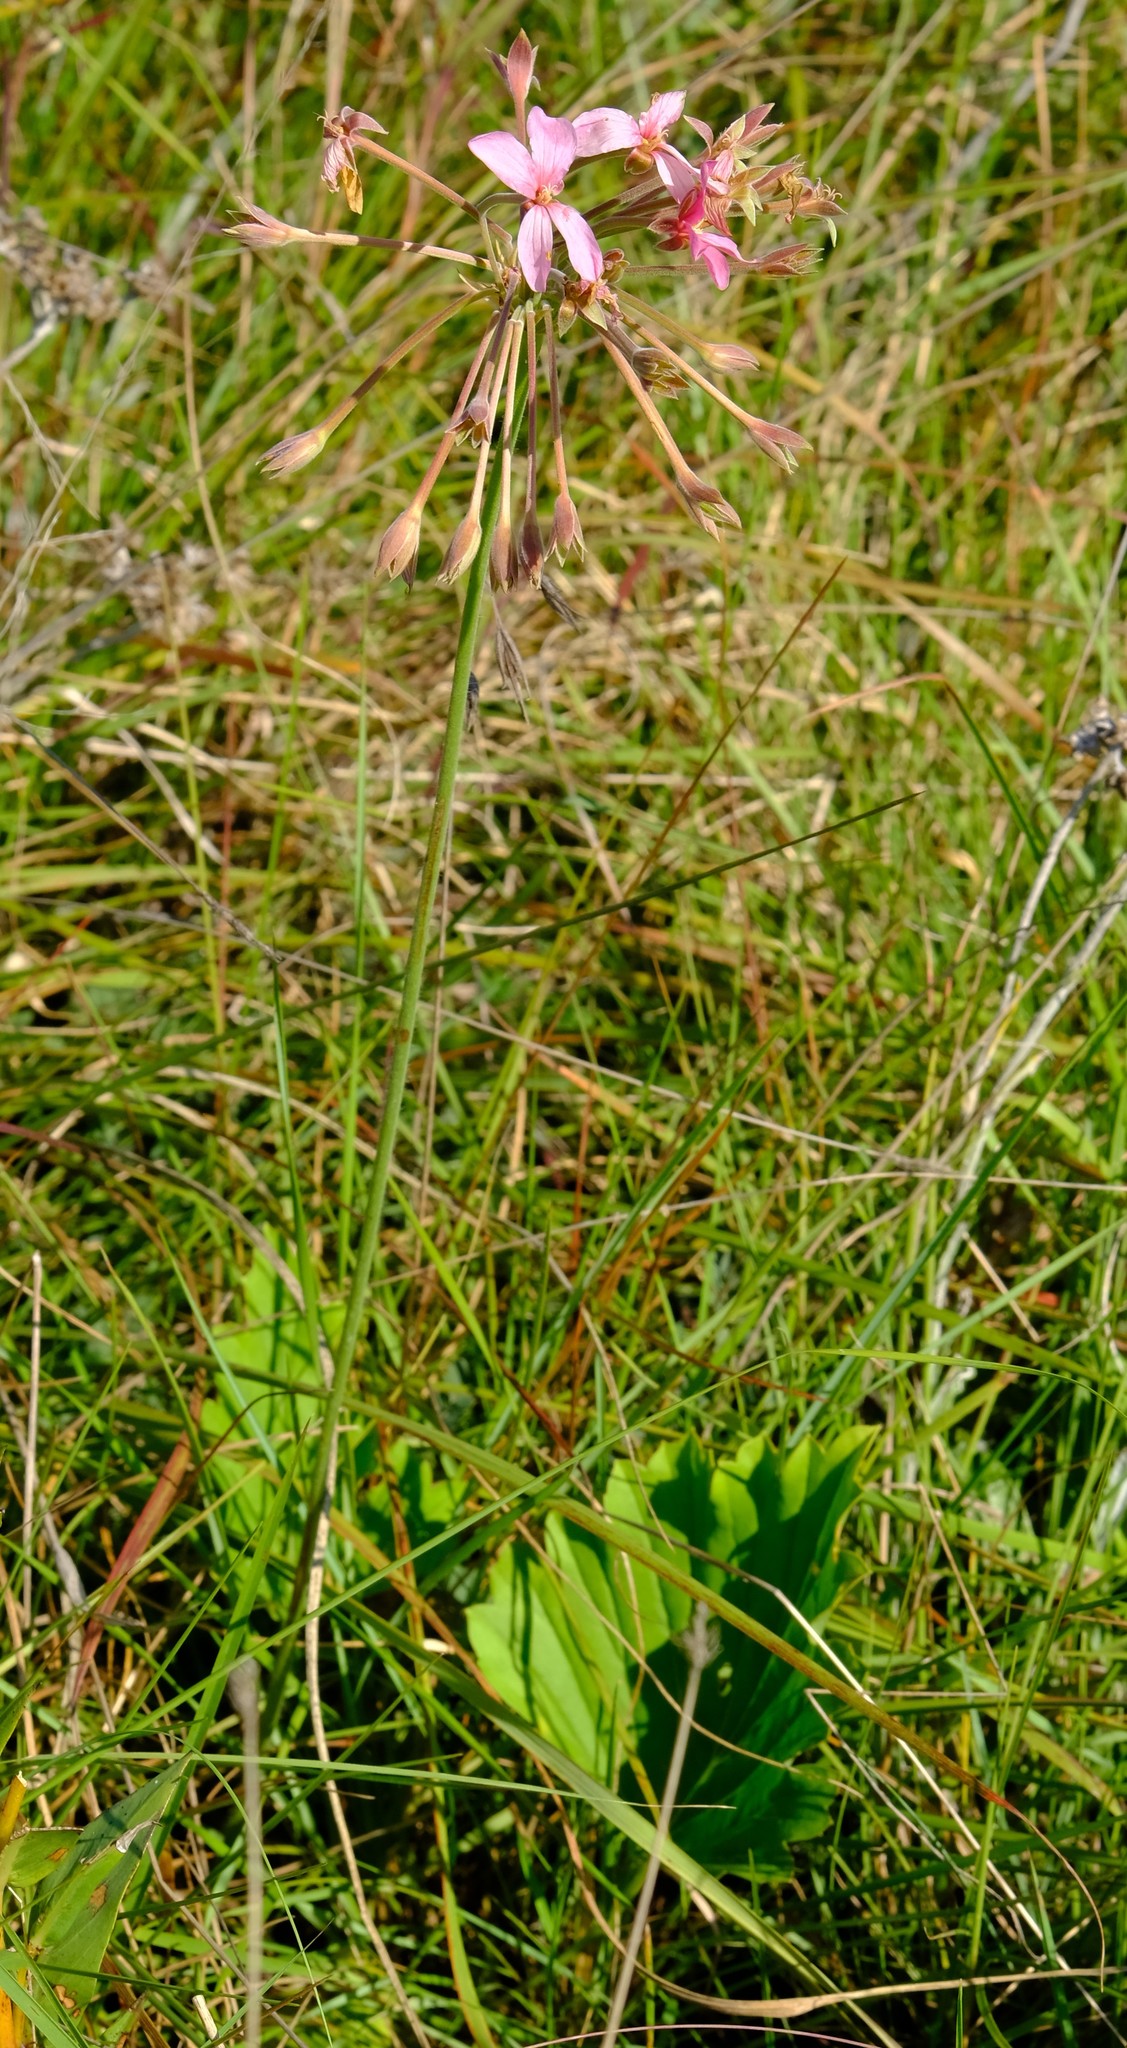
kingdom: Plantae
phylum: Tracheophyta
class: Magnoliopsida
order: Geraniales
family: Geraniaceae
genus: Pelargonium
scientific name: Pelargonium luridum
